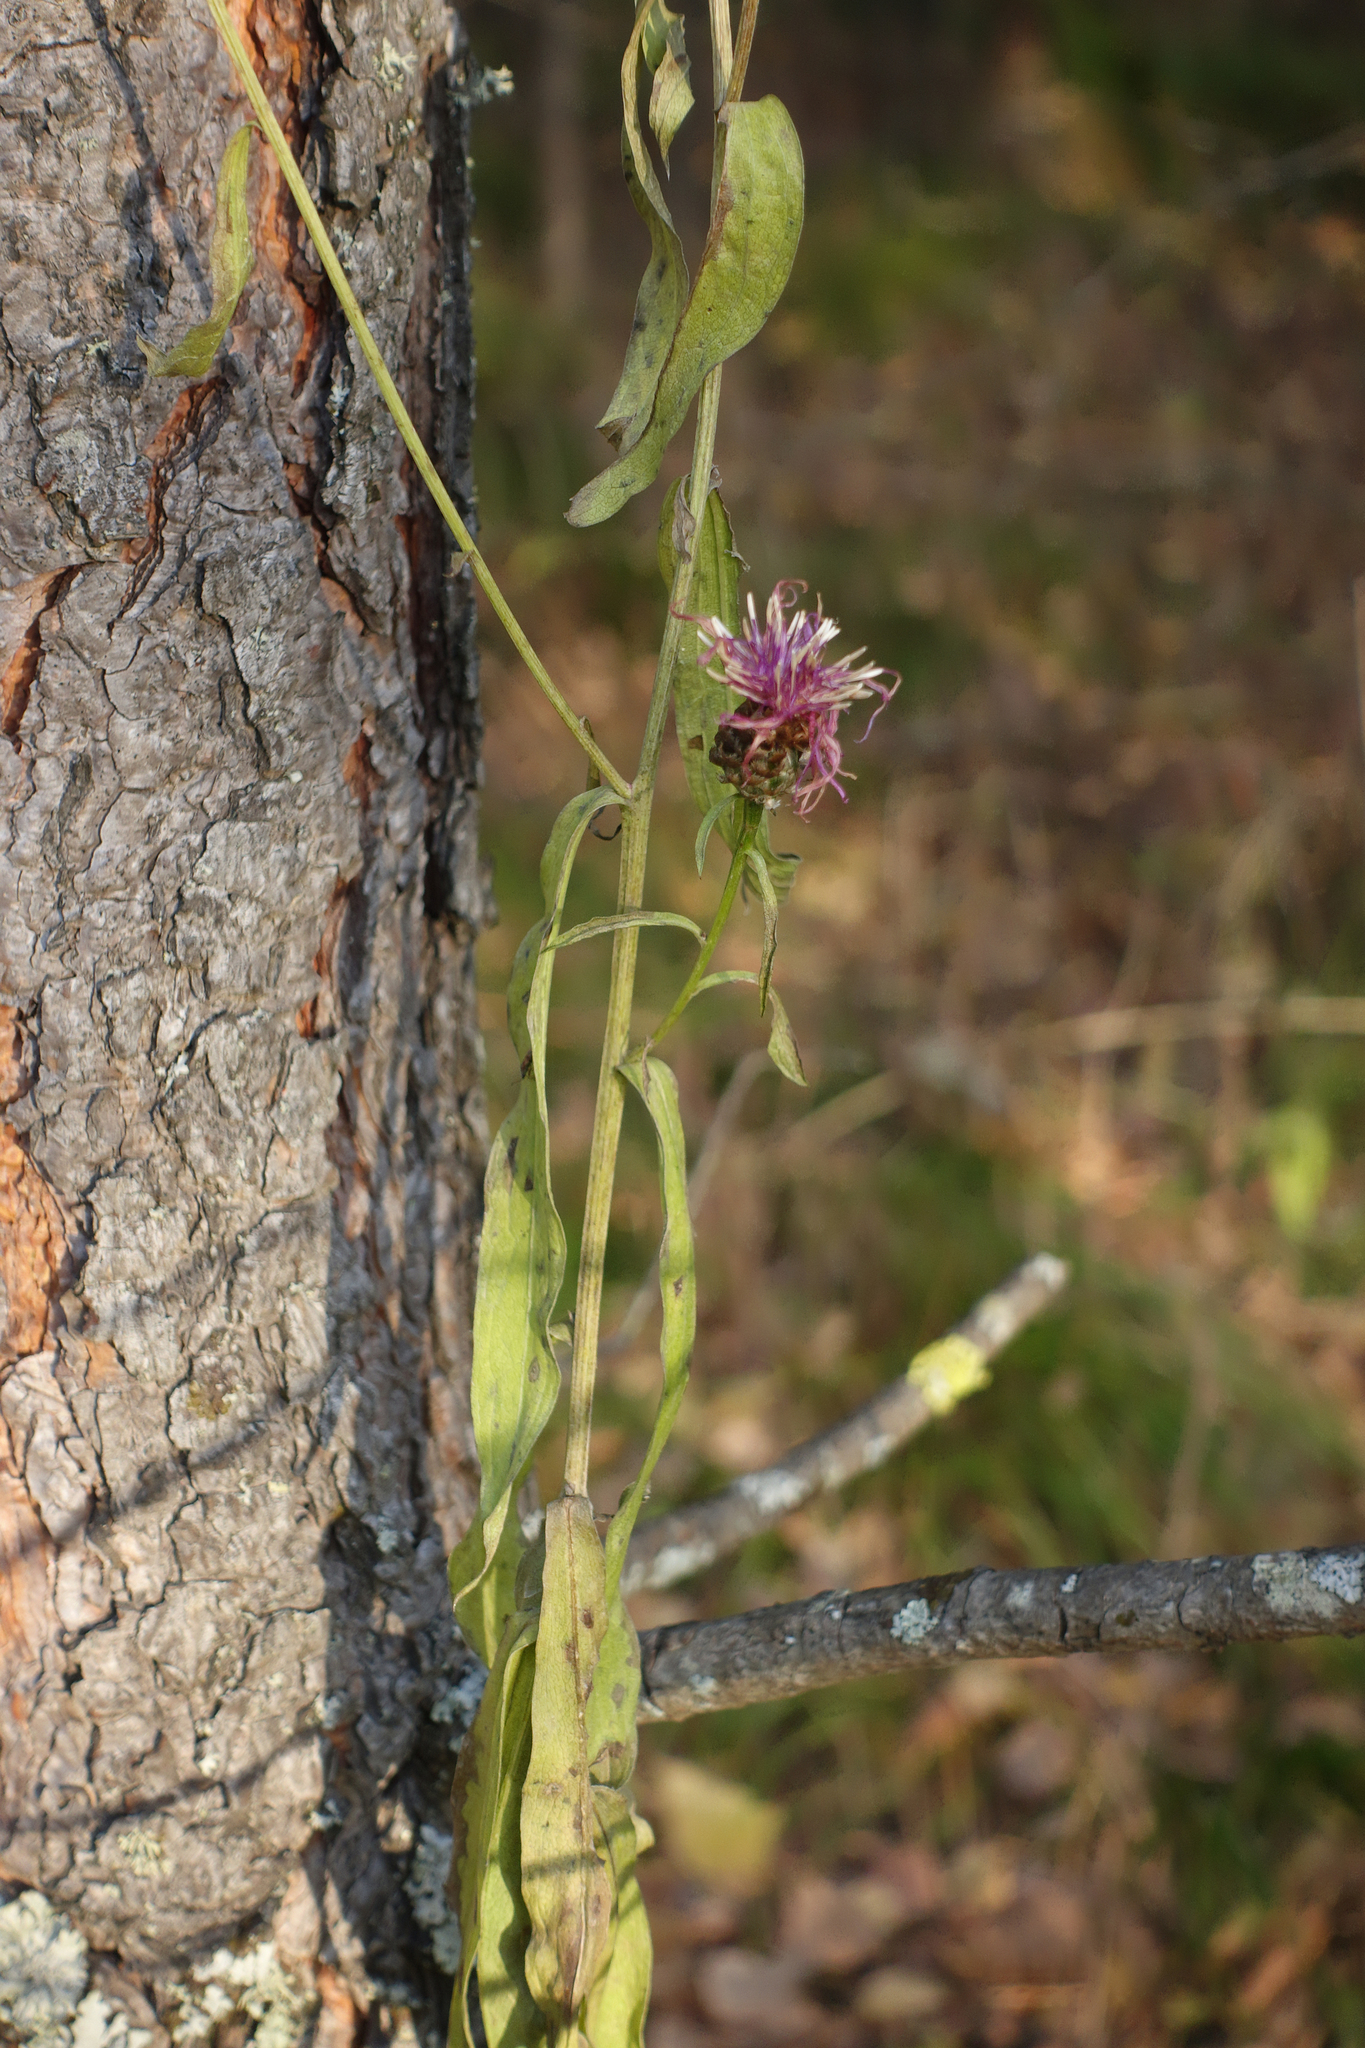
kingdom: Plantae
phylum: Tracheophyta
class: Magnoliopsida
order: Asterales
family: Asteraceae
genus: Centaurea
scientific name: Centaurea jacea
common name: Brown knapweed
